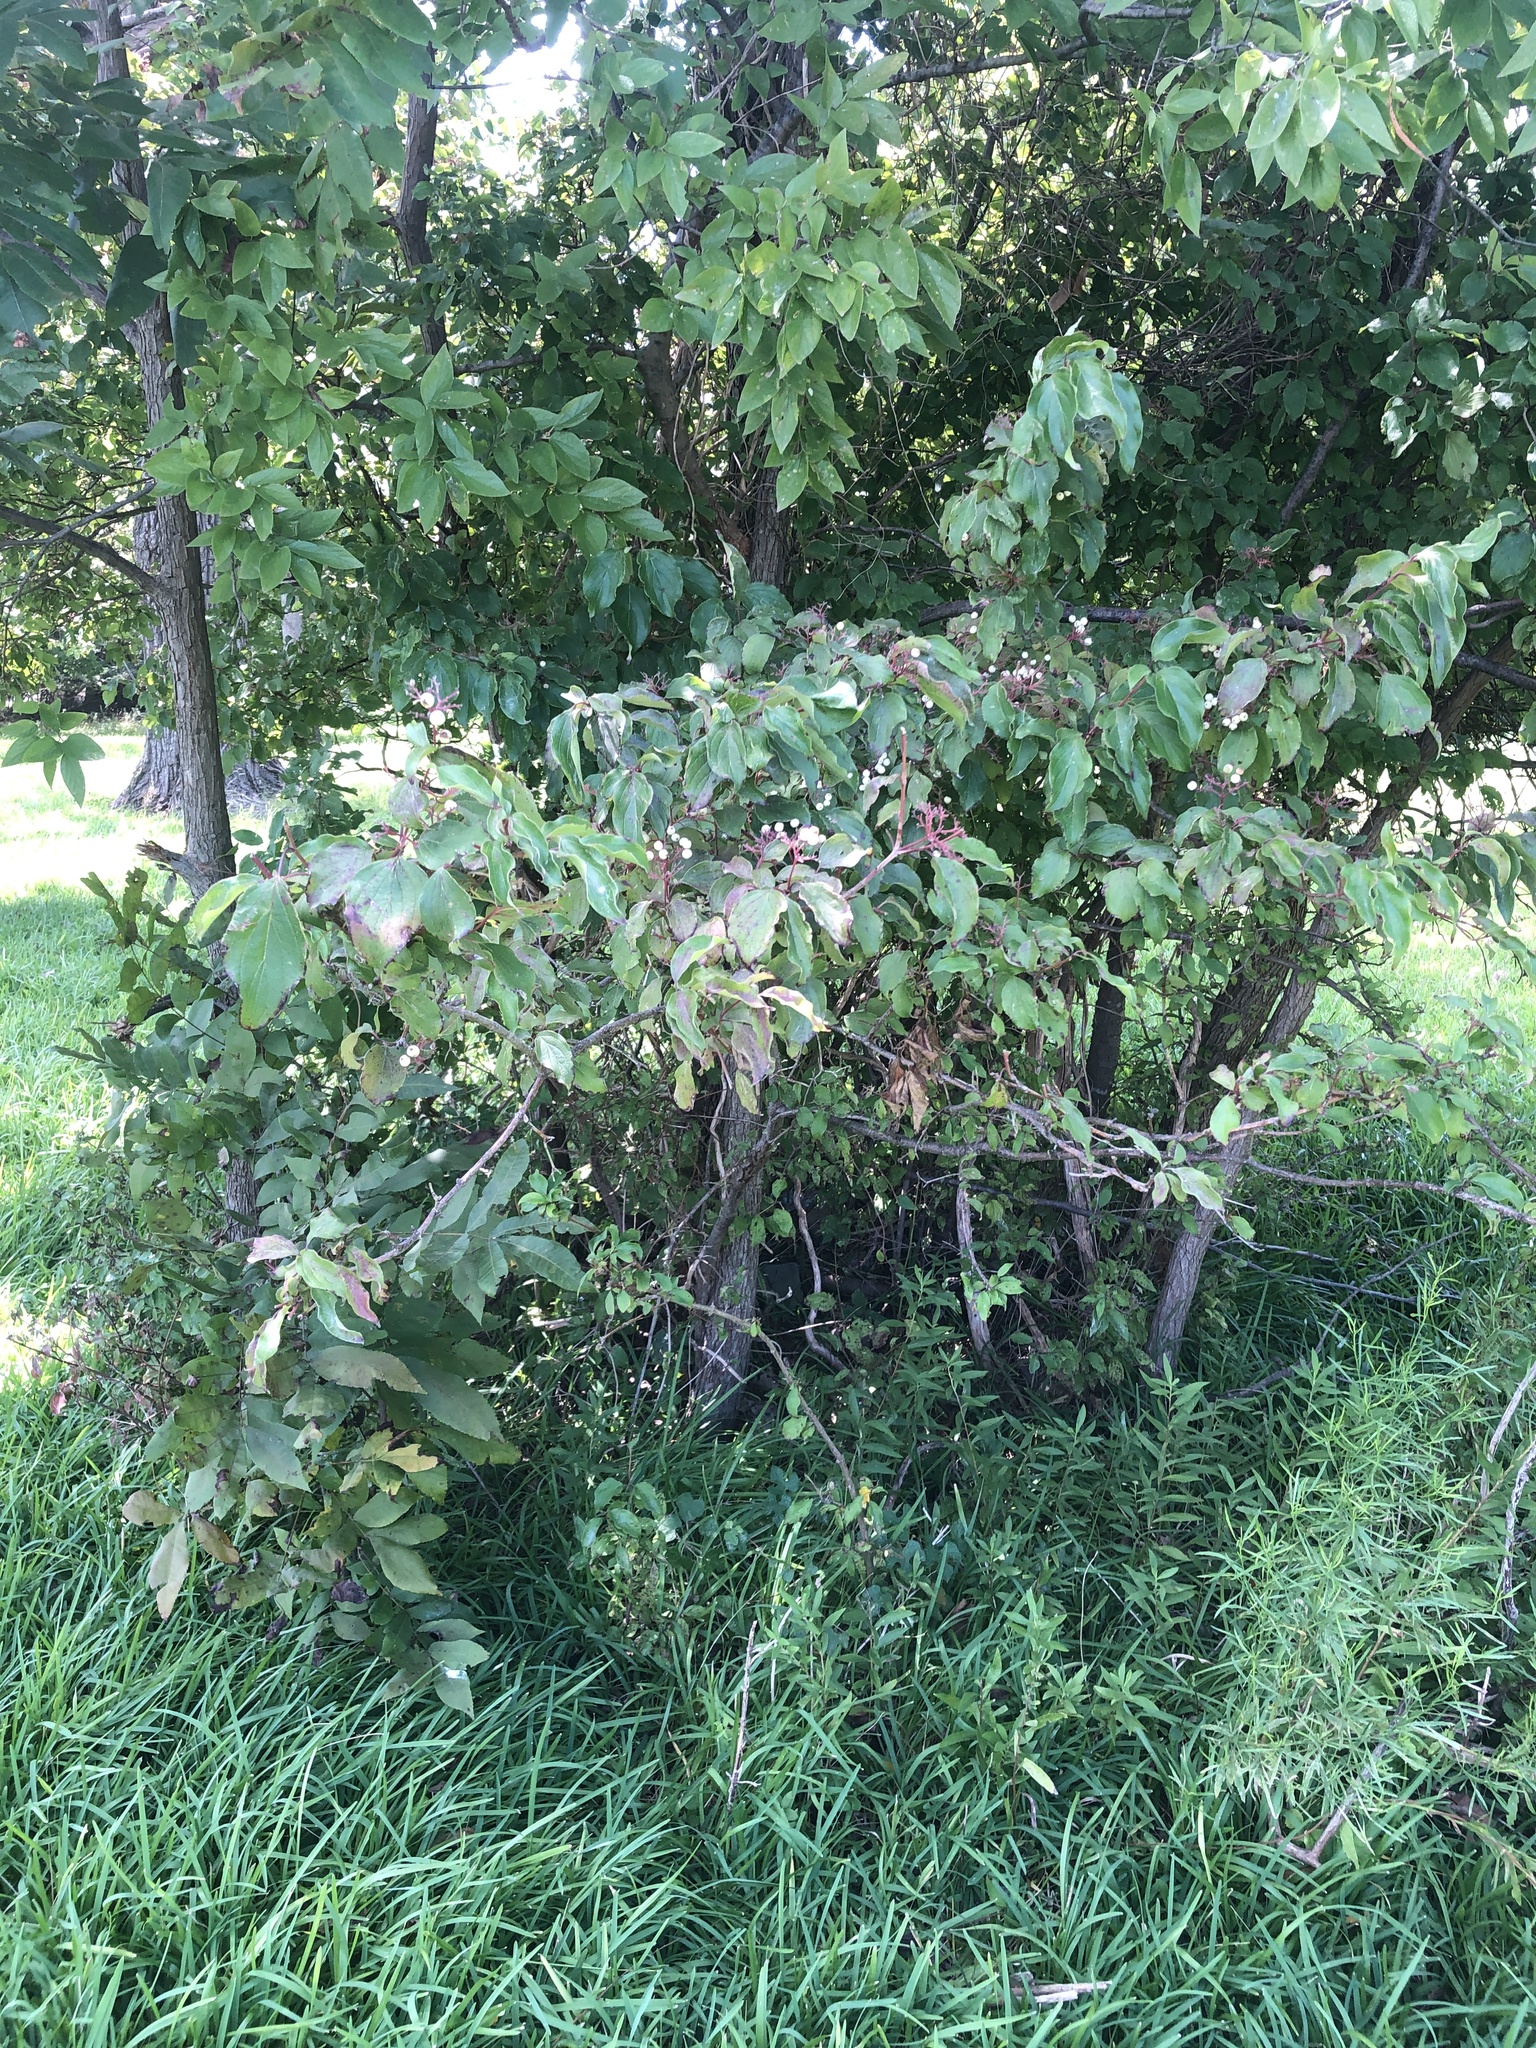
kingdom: Plantae
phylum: Tracheophyta
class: Magnoliopsida
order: Cornales
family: Cornaceae
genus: Cornus
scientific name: Cornus drummondii
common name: Rough-leaf dogwood
